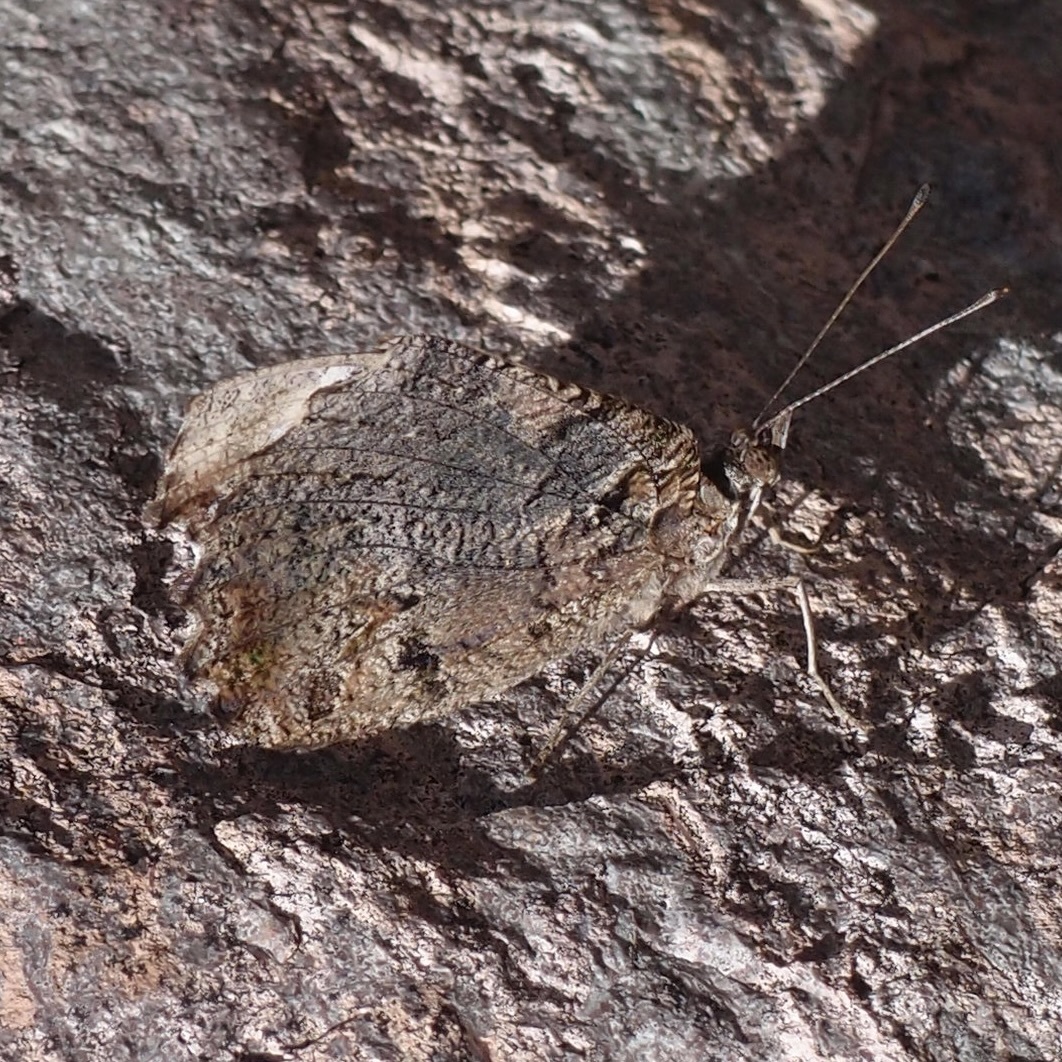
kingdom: Animalia
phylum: Arthropoda
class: Insecta
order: Lepidoptera
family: Nymphalidae
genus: Myscelia
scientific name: Myscelia cyananthe
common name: Blackened bluewing
